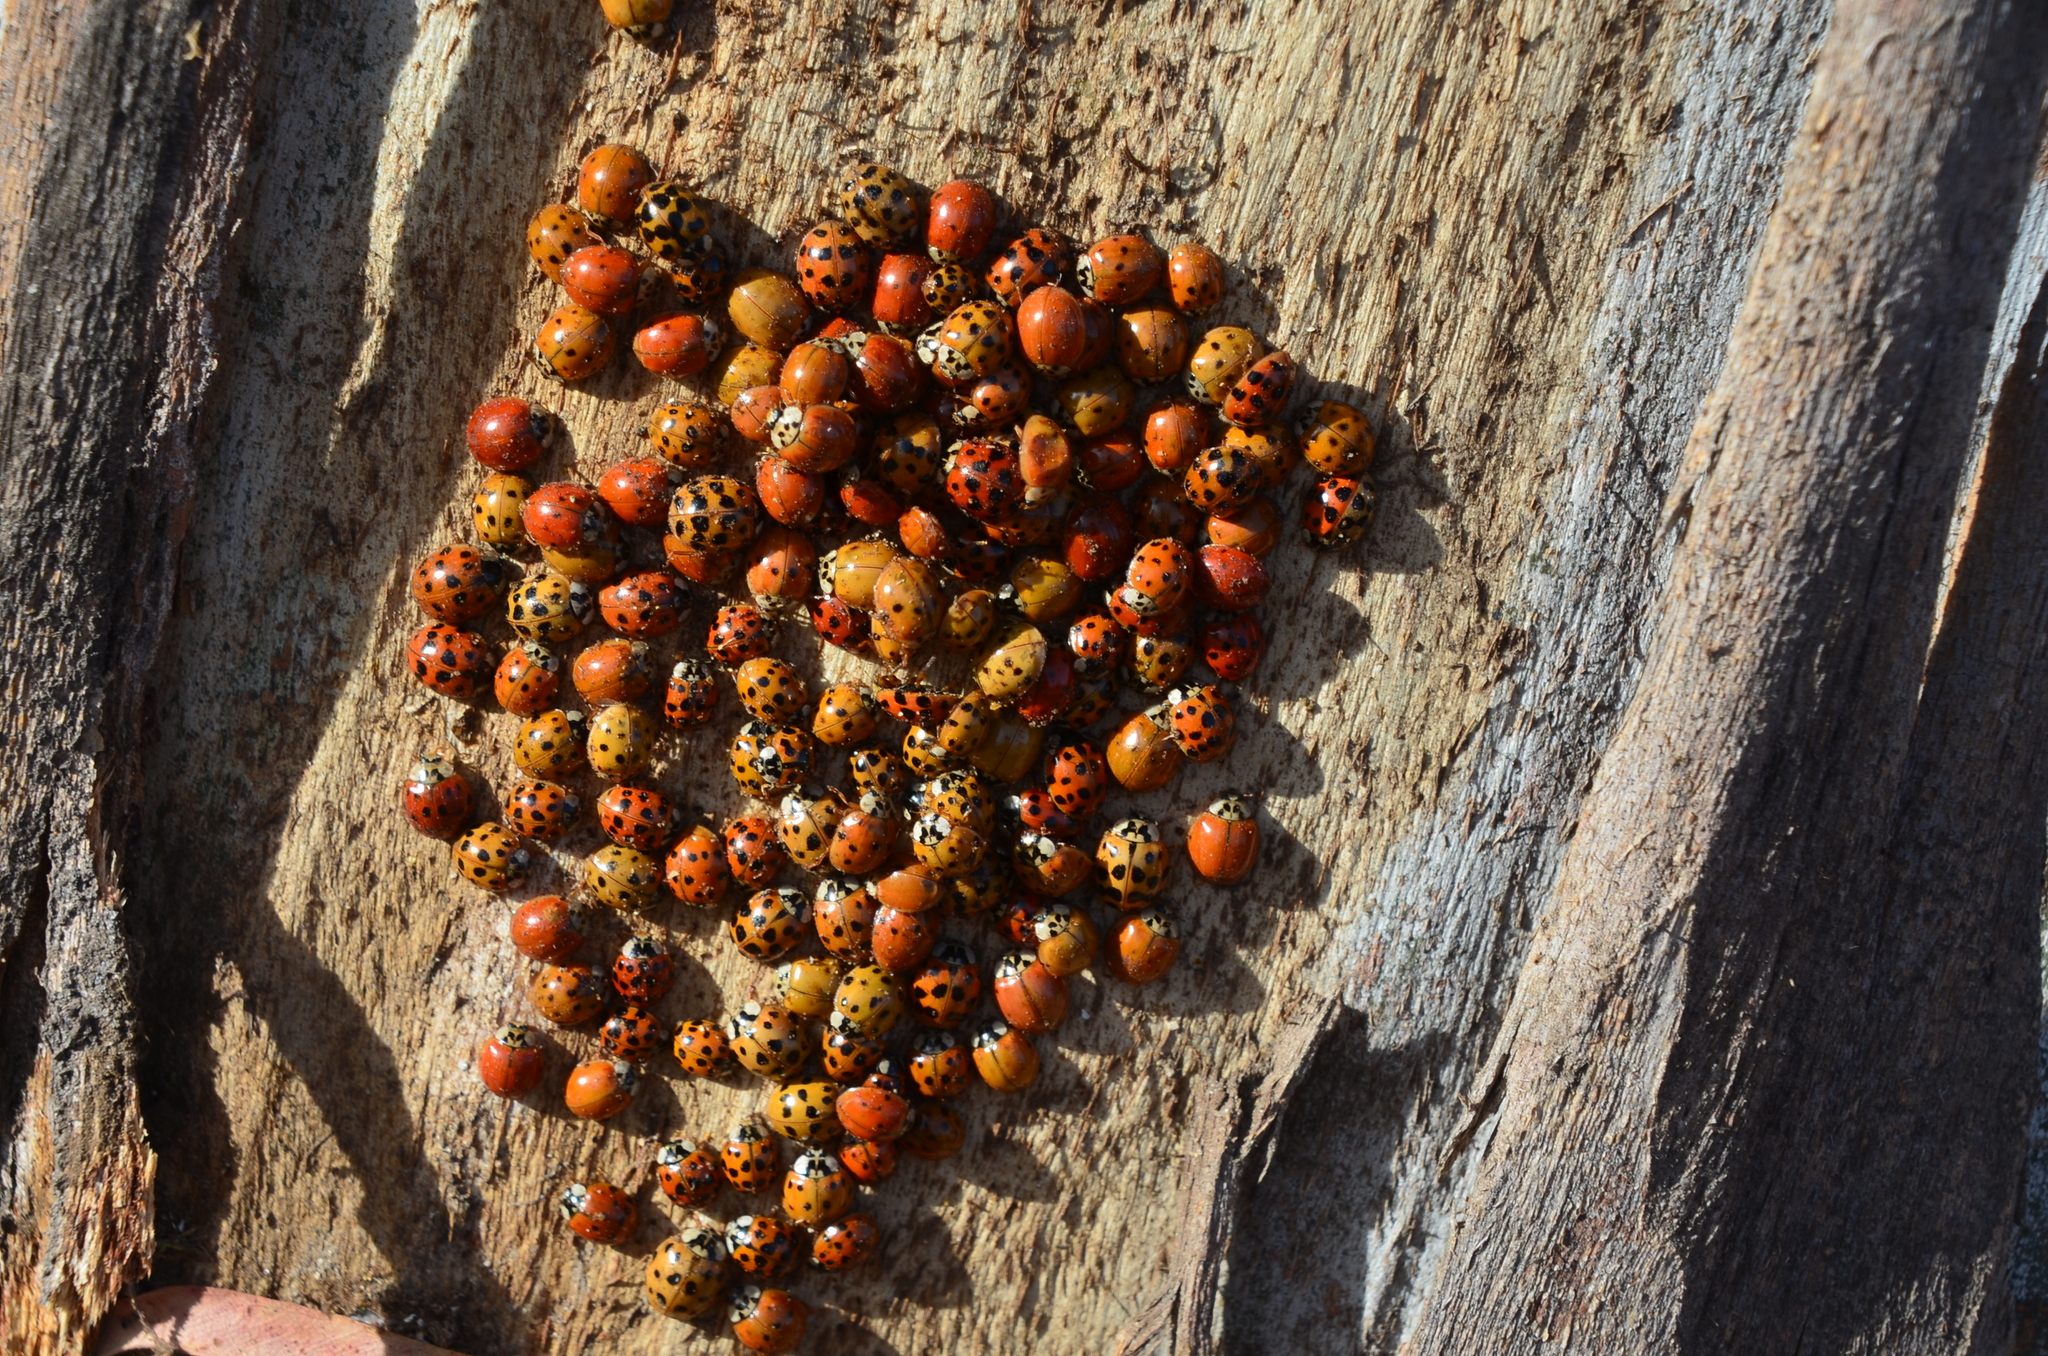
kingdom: Animalia
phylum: Arthropoda
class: Insecta
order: Coleoptera
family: Coccinellidae
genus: Harmonia
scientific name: Harmonia axyridis
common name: Harlequin ladybird
